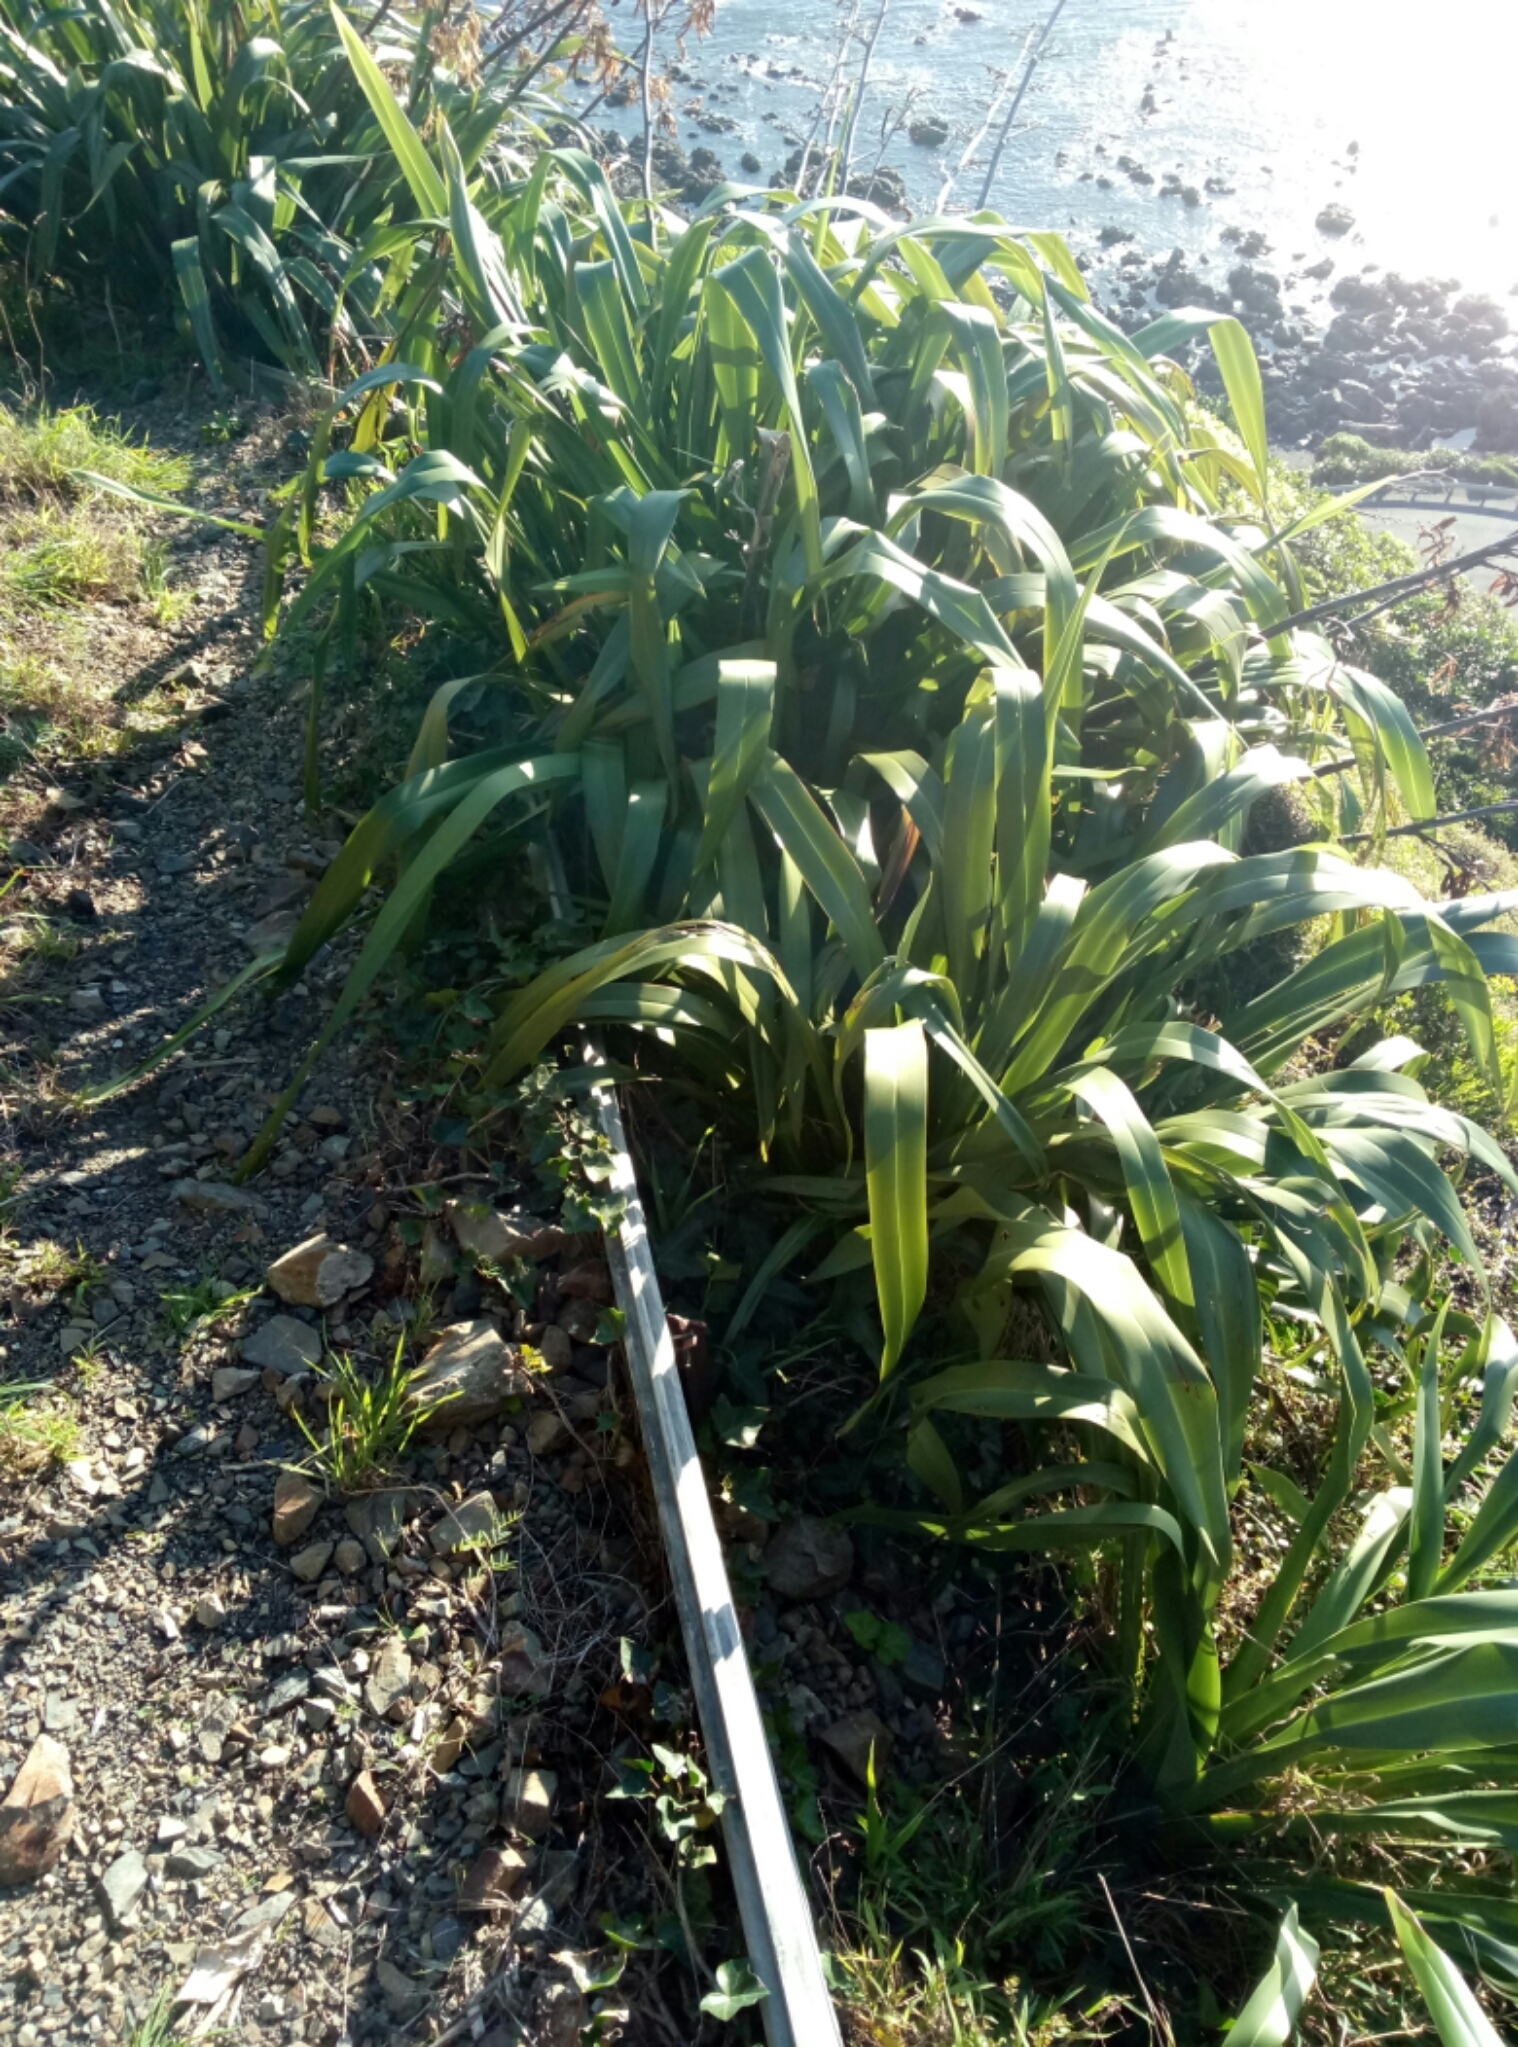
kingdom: Plantae
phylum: Tracheophyta
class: Liliopsida
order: Asparagales
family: Asphodelaceae
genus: Phormium
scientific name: Phormium colensoi
